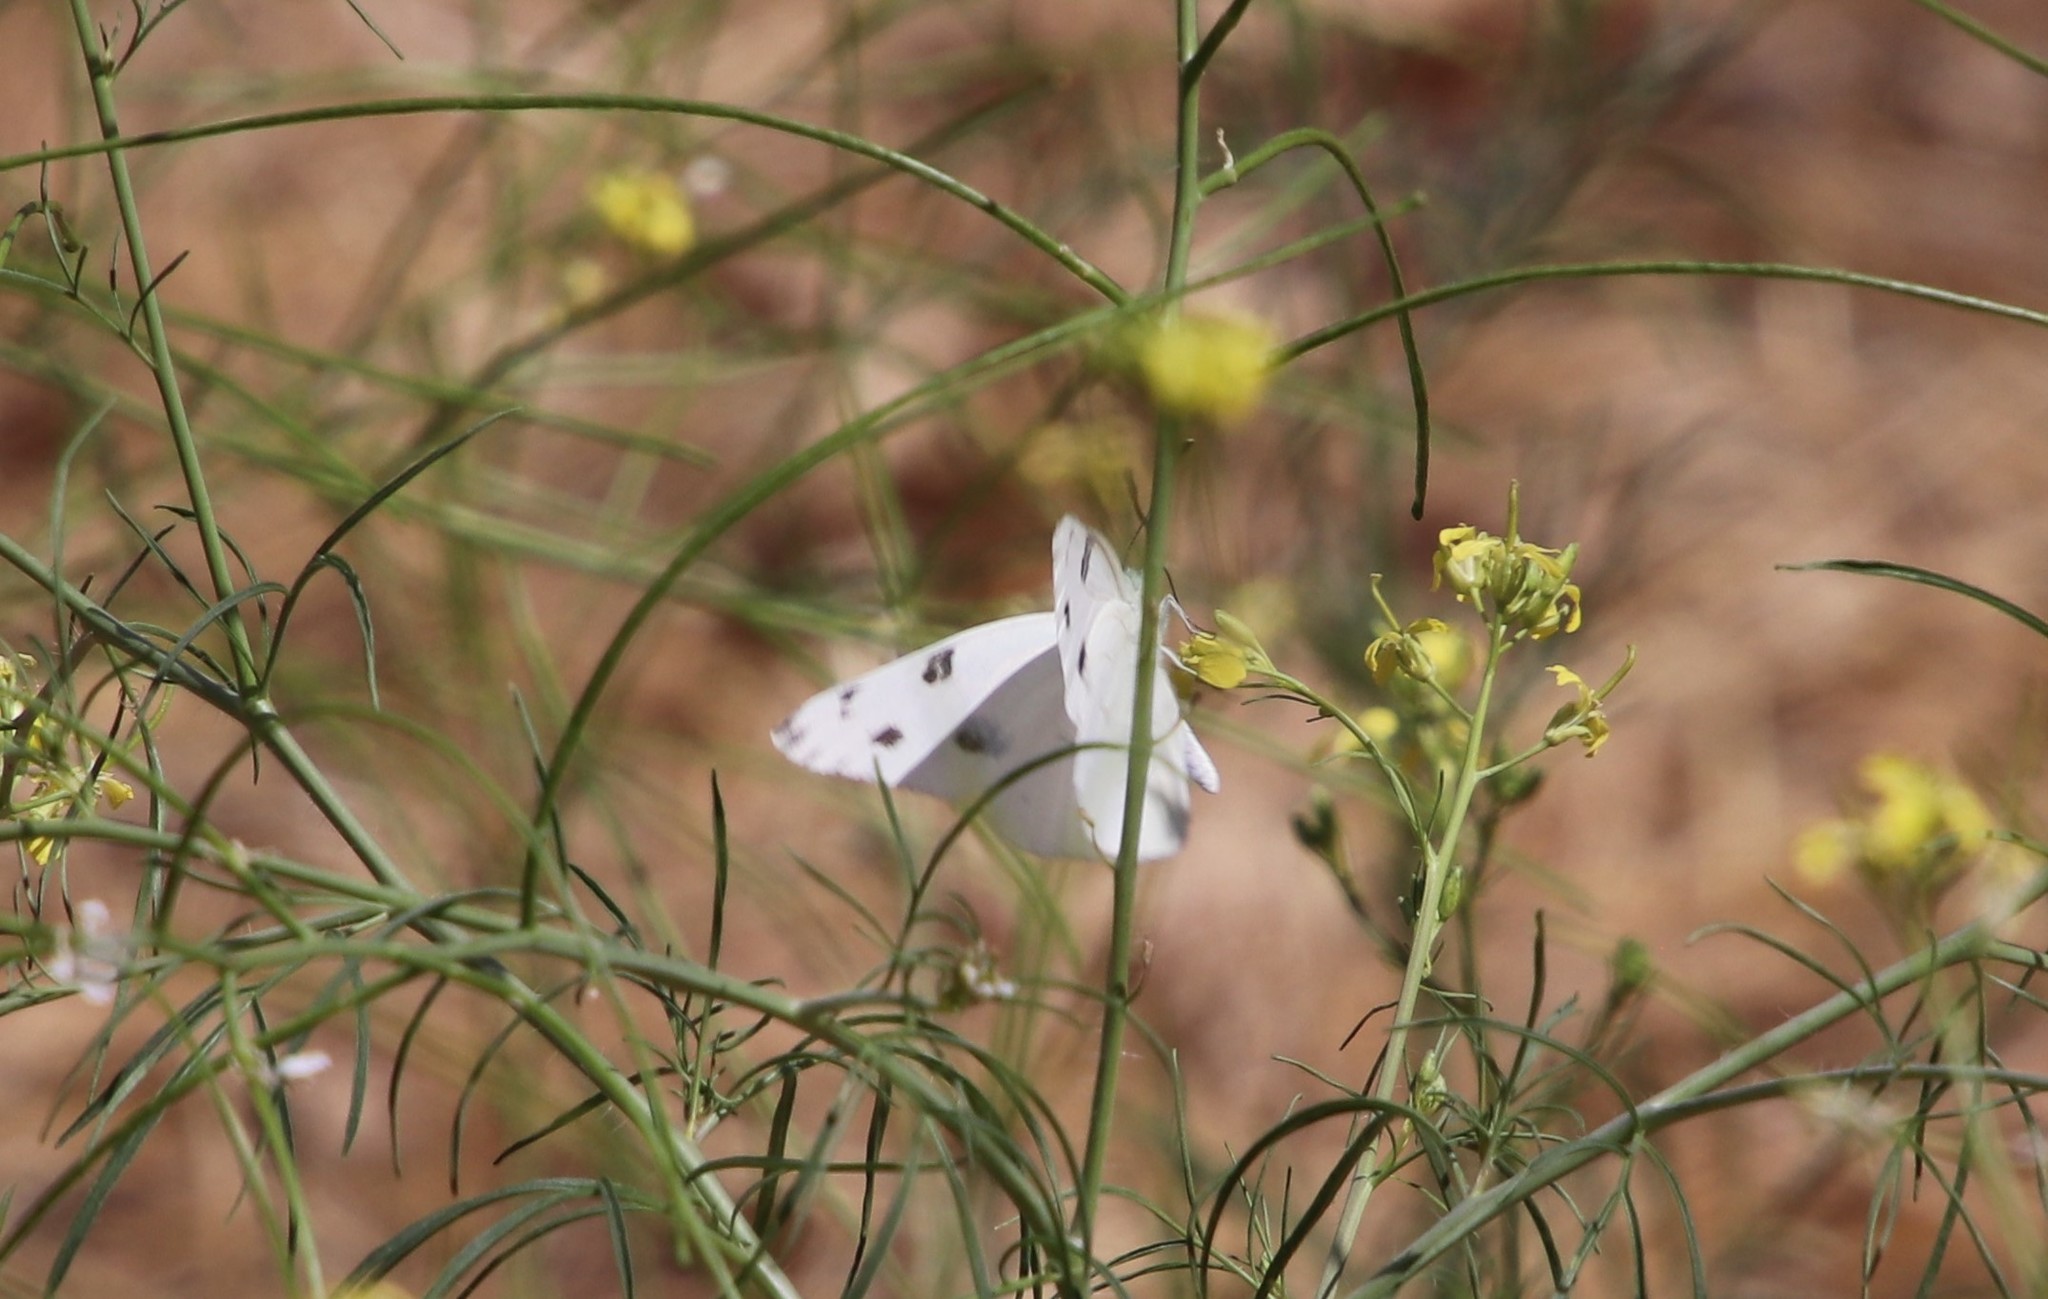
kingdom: Animalia
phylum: Arthropoda
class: Insecta
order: Lepidoptera
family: Pieridae
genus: Pontia
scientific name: Pontia protodice
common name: Checkered white
